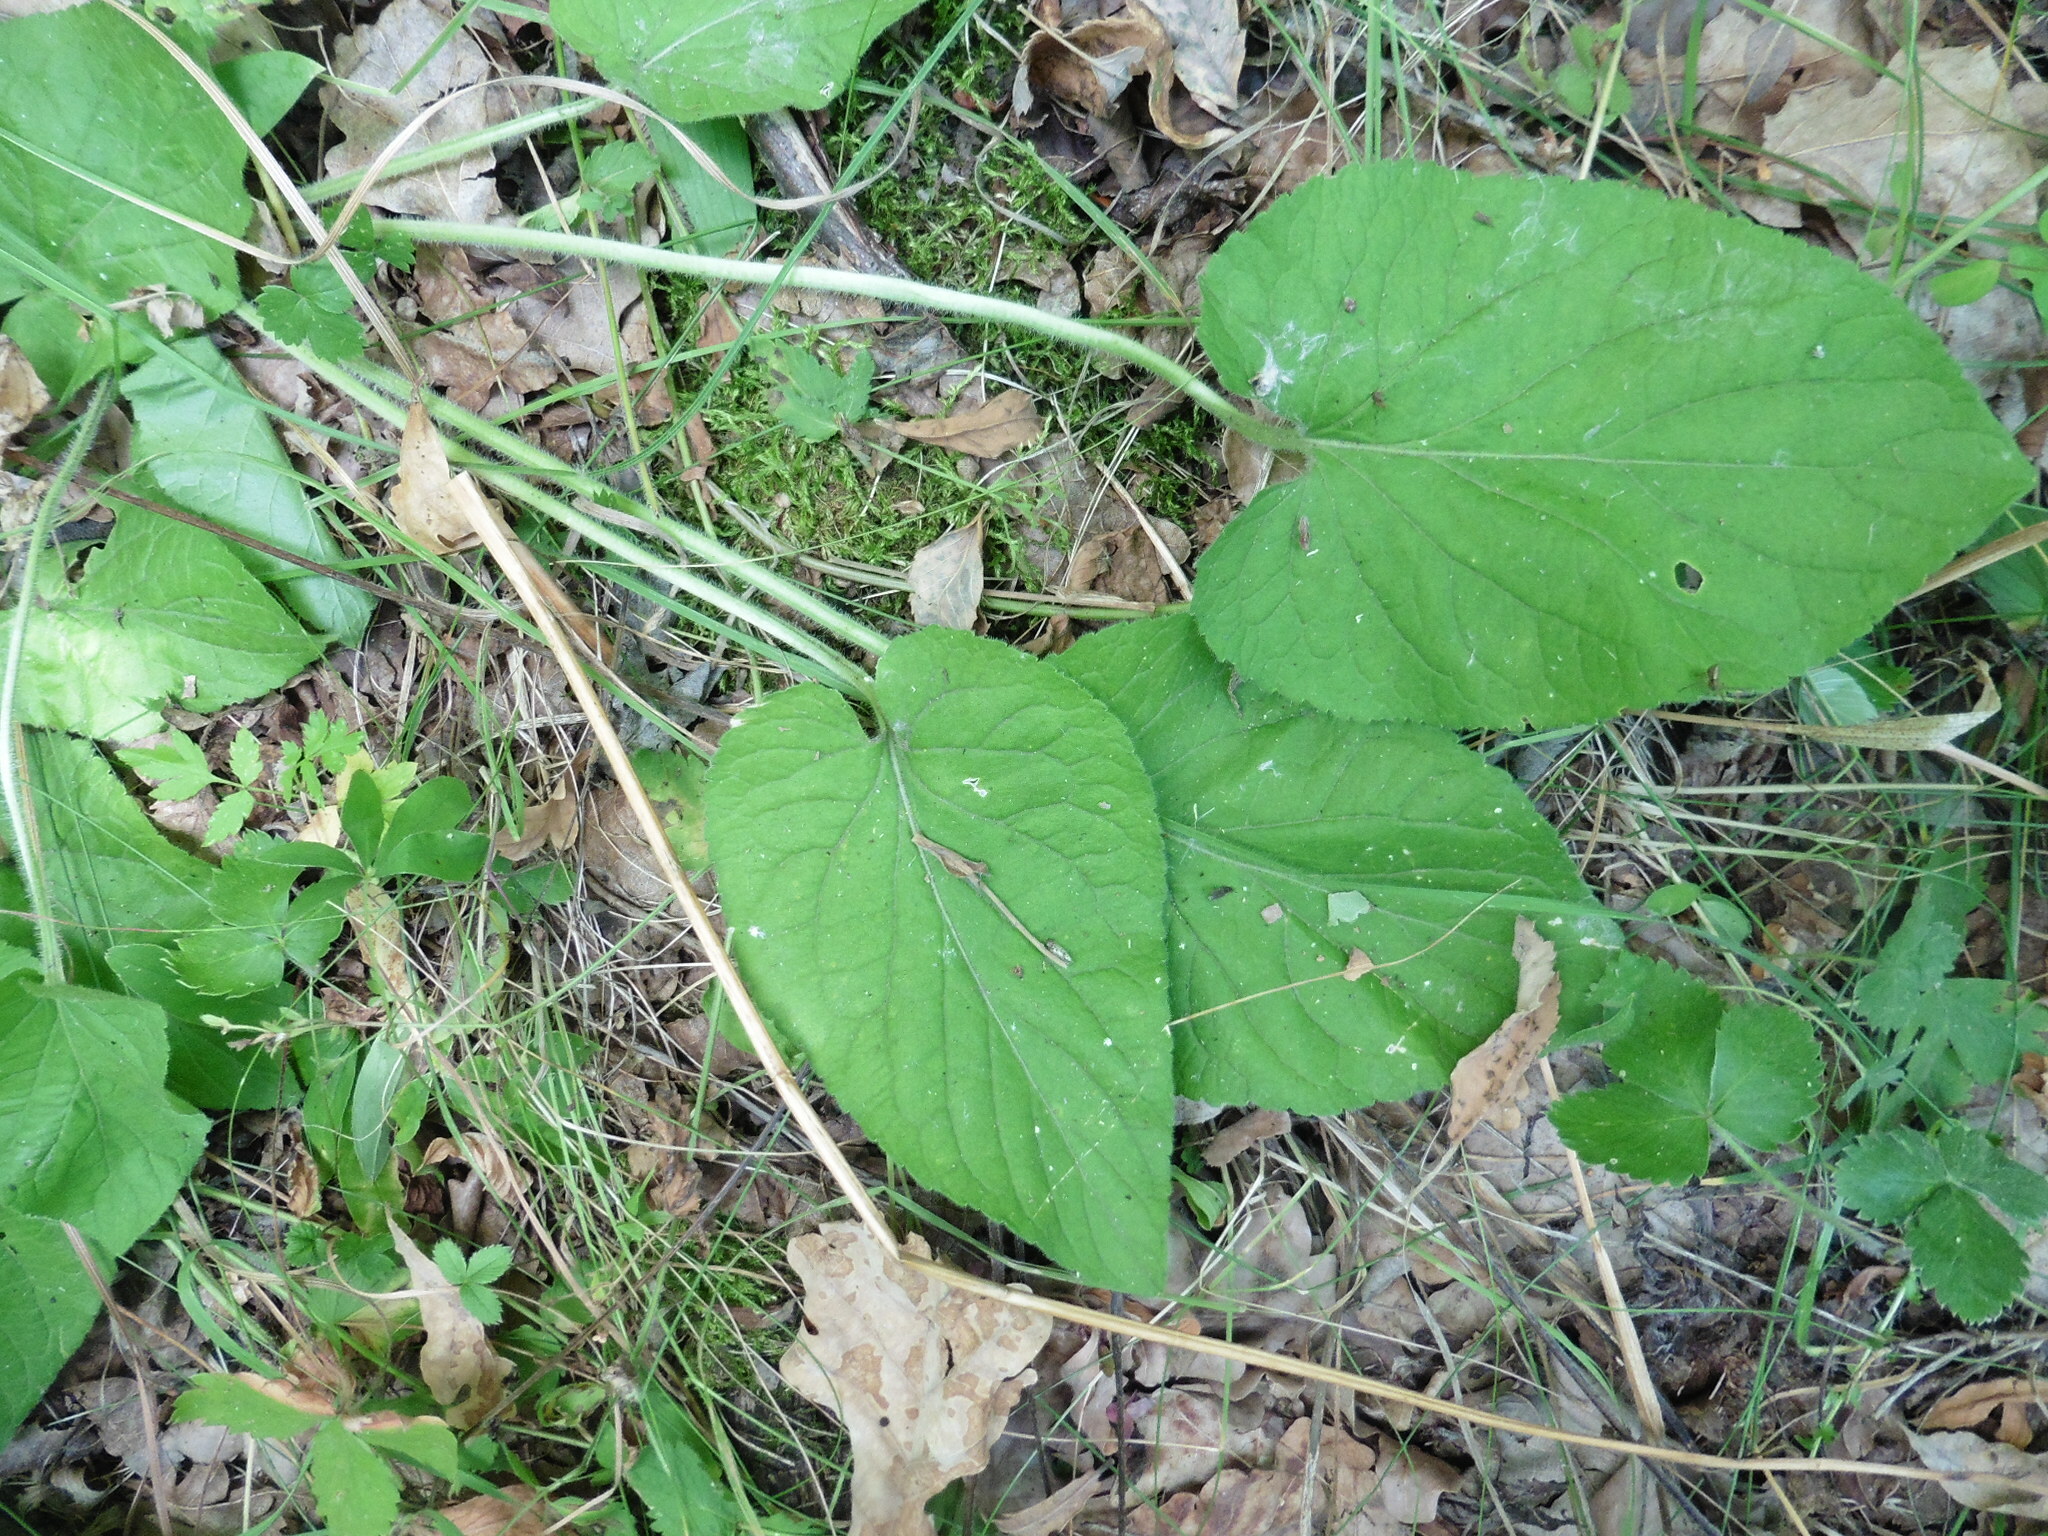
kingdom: Plantae
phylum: Tracheophyta
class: Magnoliopsida
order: Malpighiales
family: Violaceae
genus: Viola
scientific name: Viola hirta
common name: Hairy violet
